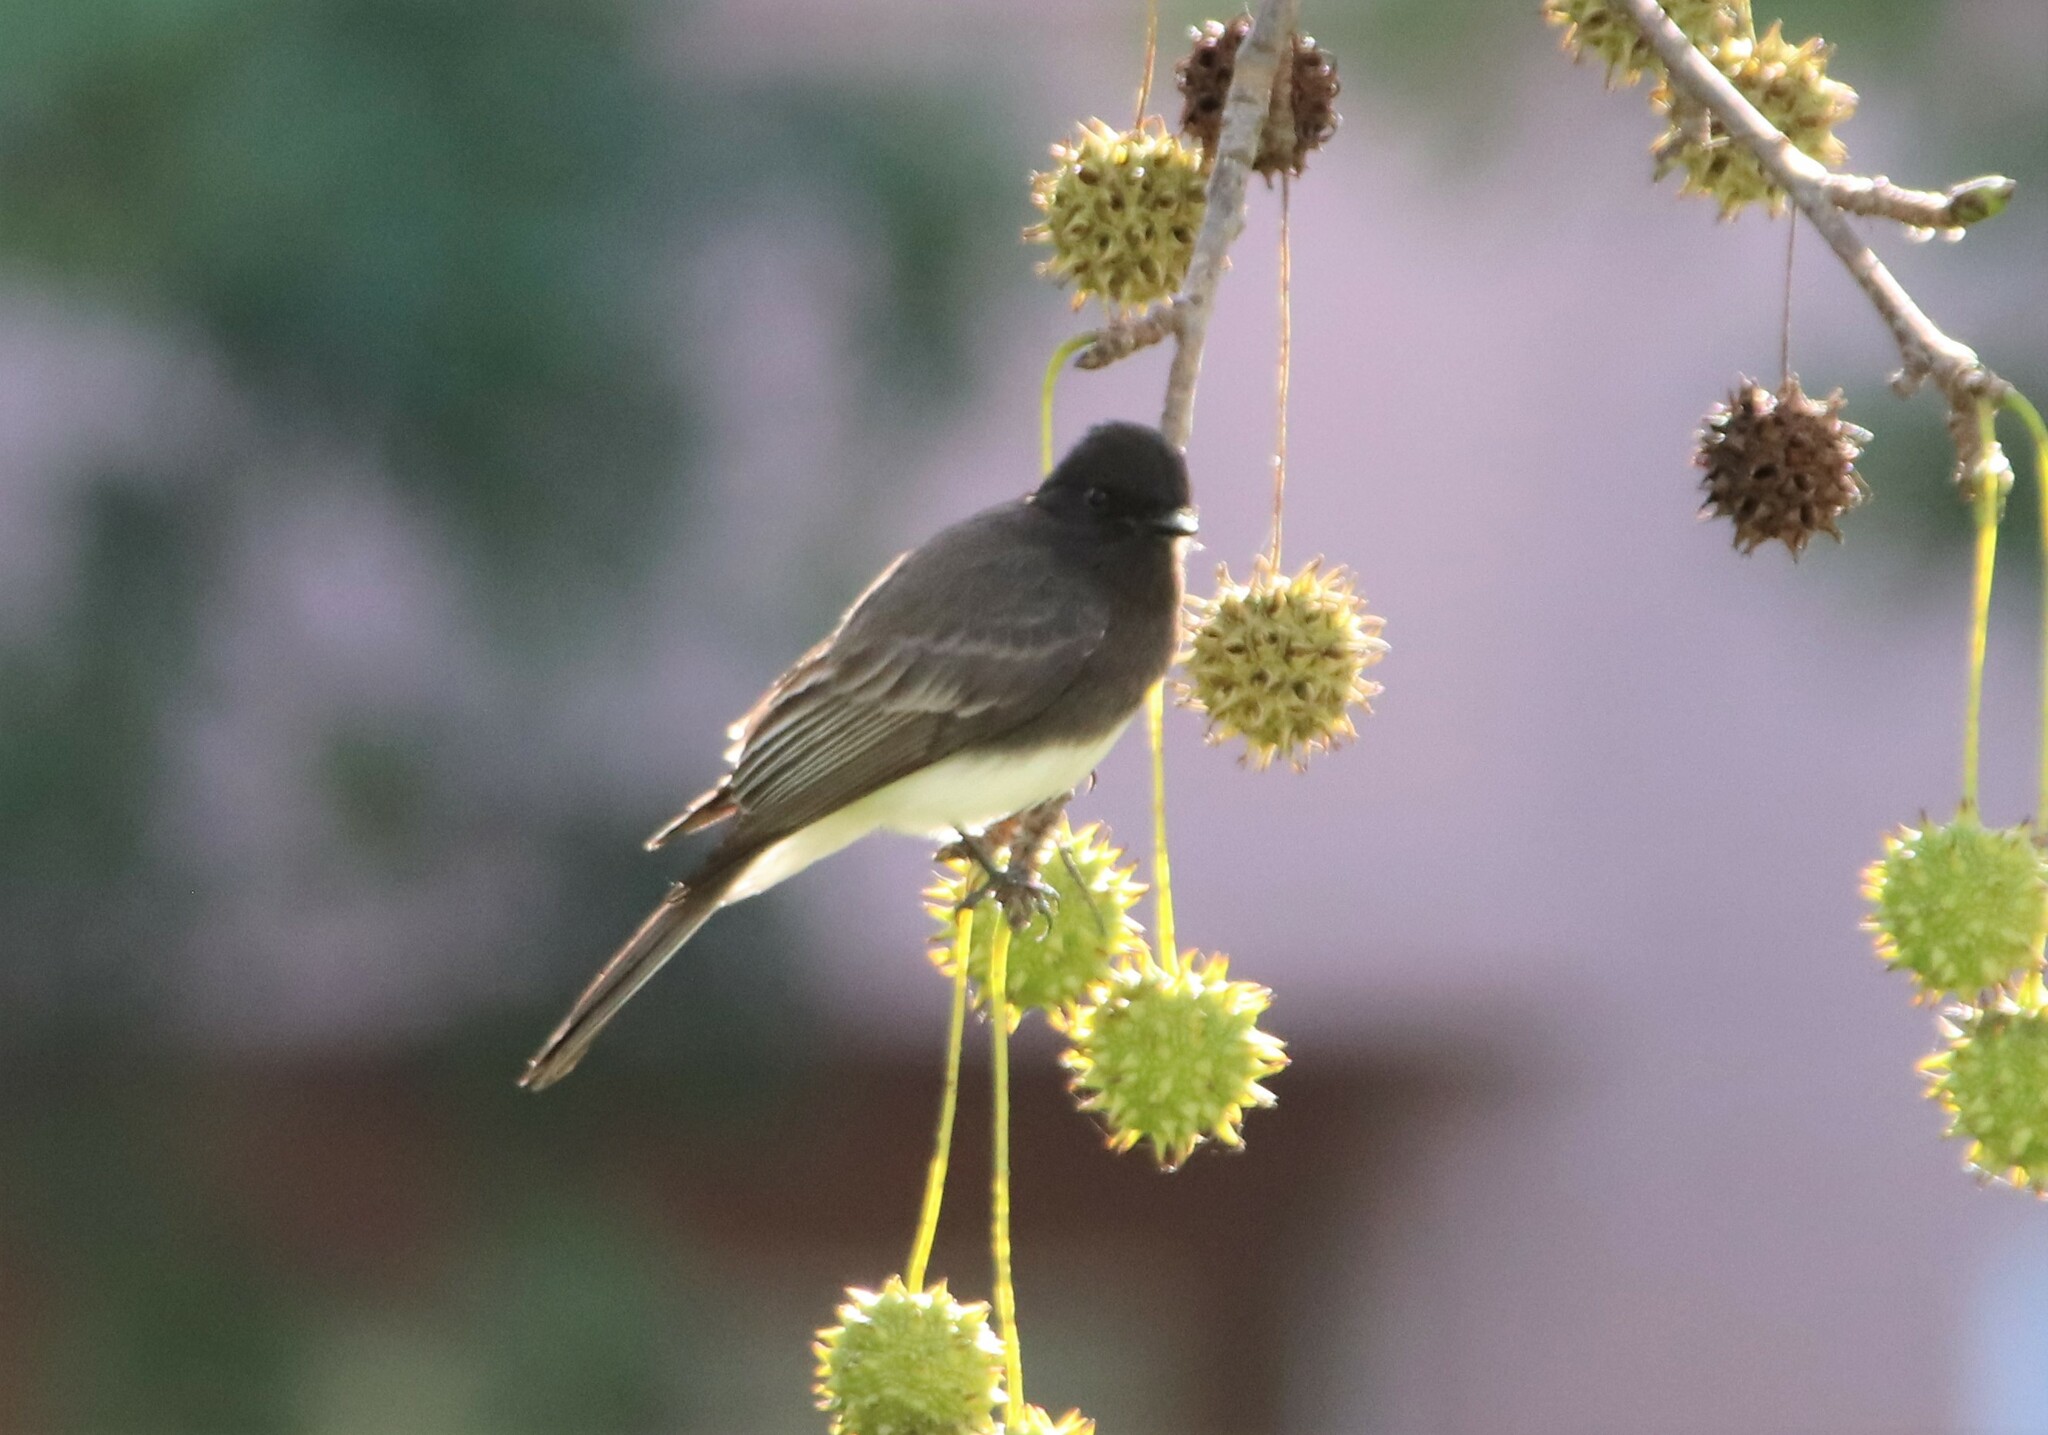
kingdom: Animalia
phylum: Chordata
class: Aves
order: Passeriformes
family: Tyrannidae
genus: Sayornis
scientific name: Sayornis nigricans
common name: Black phoebe
